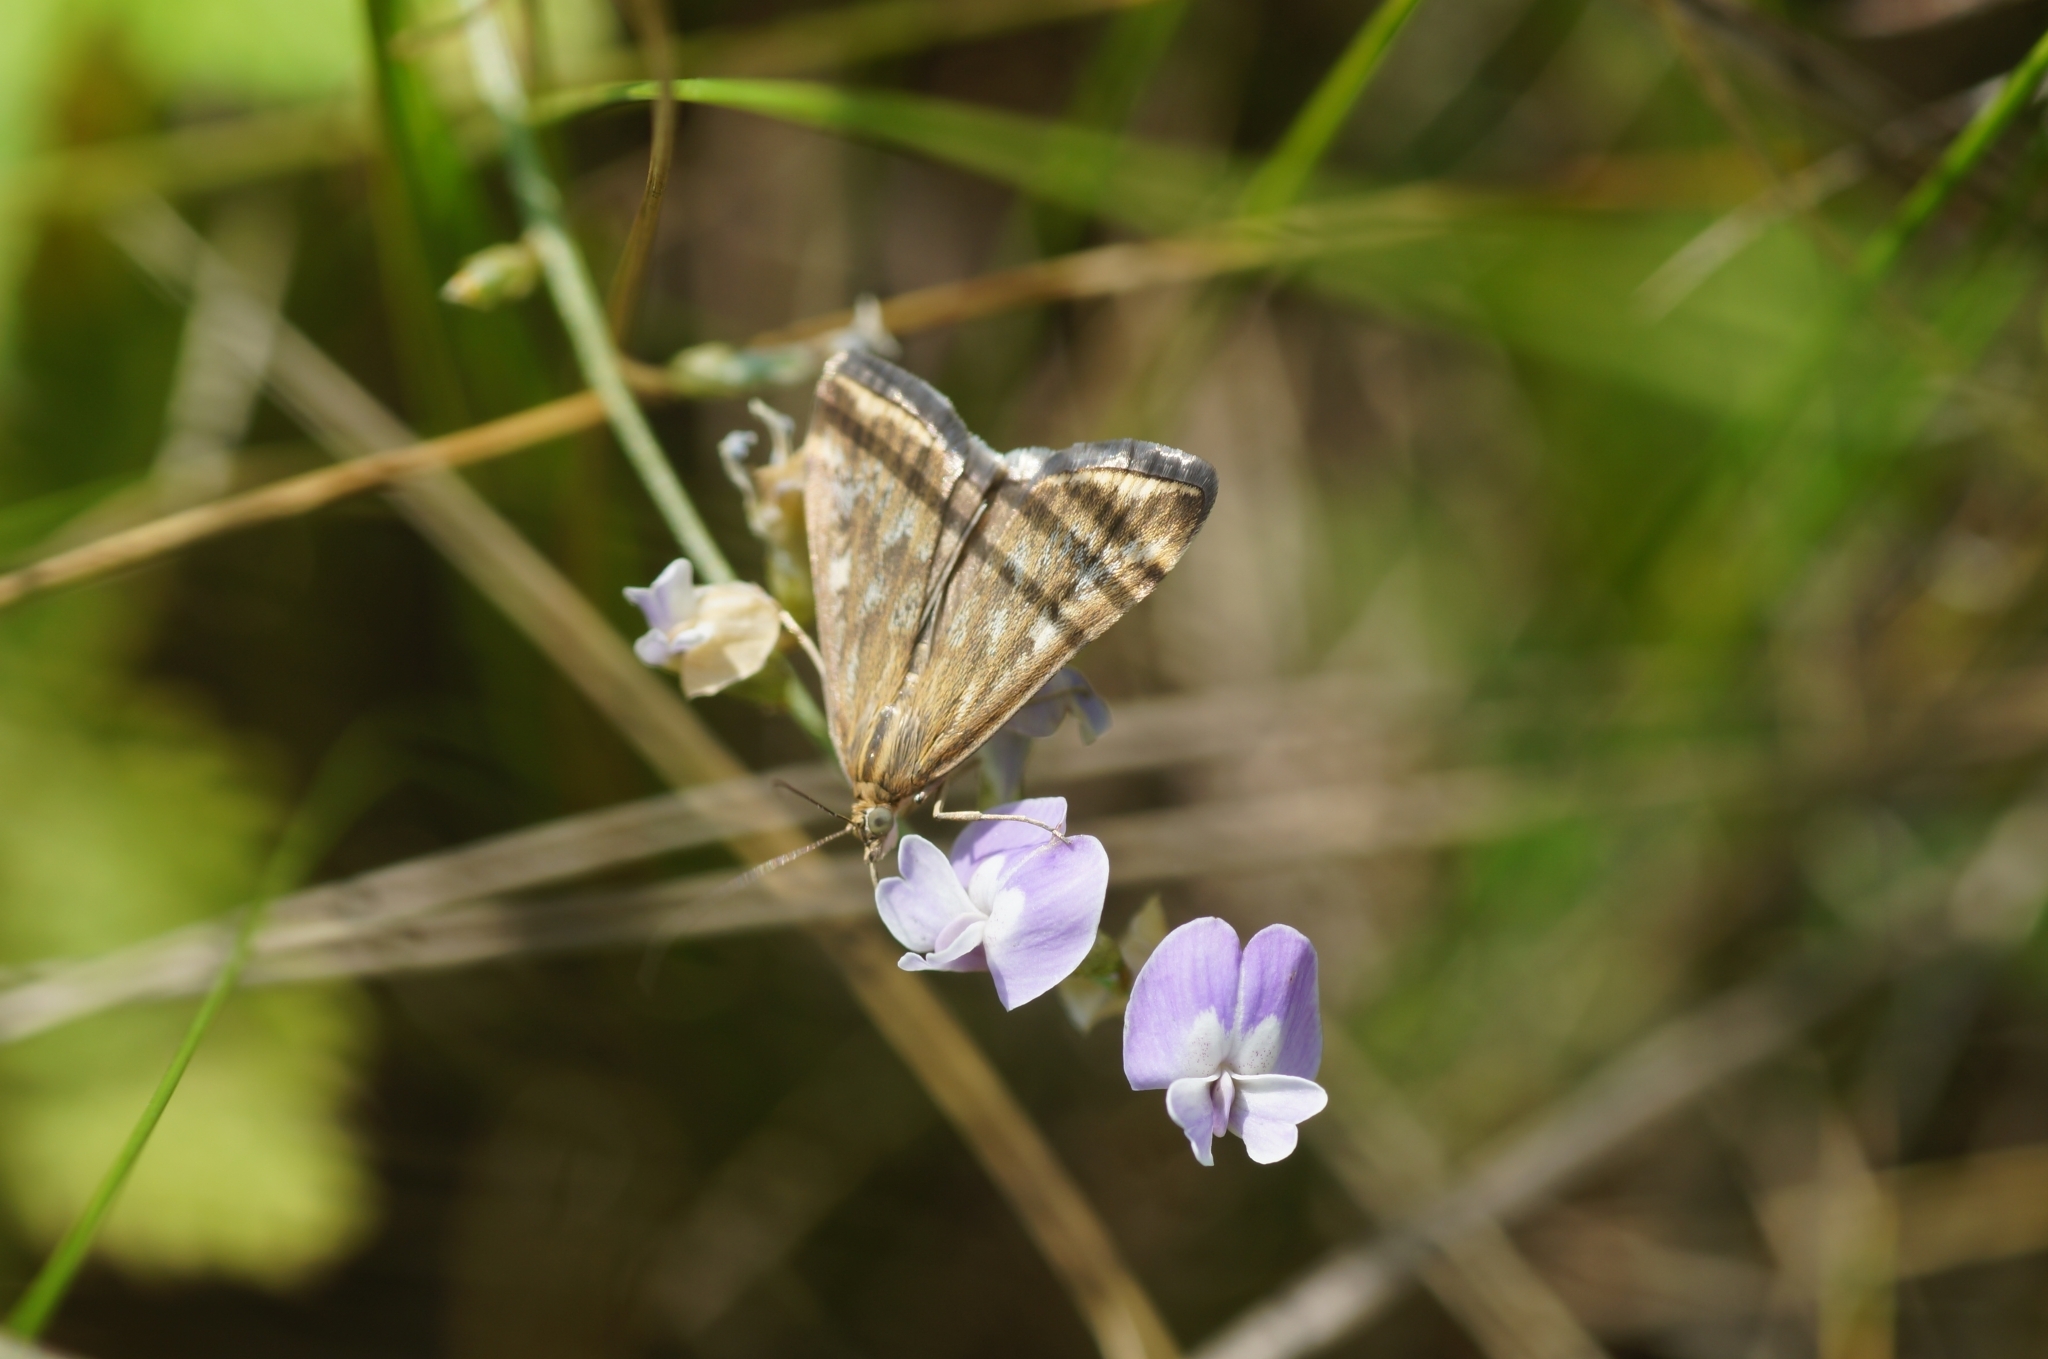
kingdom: Animalia
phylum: Arthropoda
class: Insecta
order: Lepidoptera
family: Crambidae
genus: Loxostege
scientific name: Loxostege sticticalis
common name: Crambid moth
